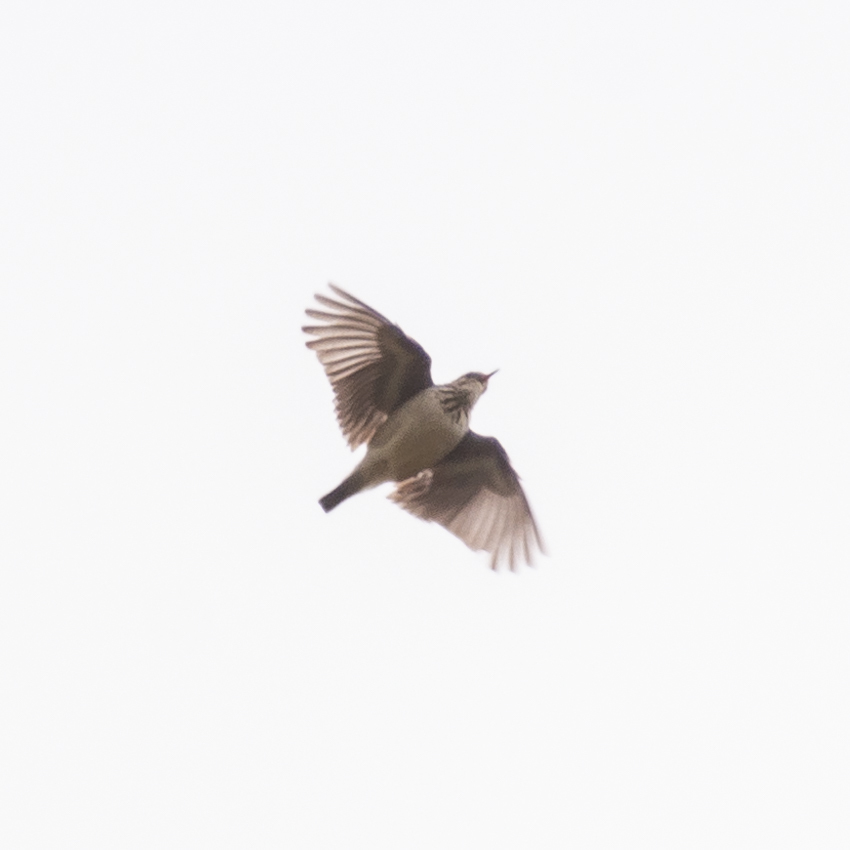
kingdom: Animalia
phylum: Chordata
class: Aves
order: Passeriformes
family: Alaudidae
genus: Lullula
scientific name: Lullula arborea
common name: Woodlark
